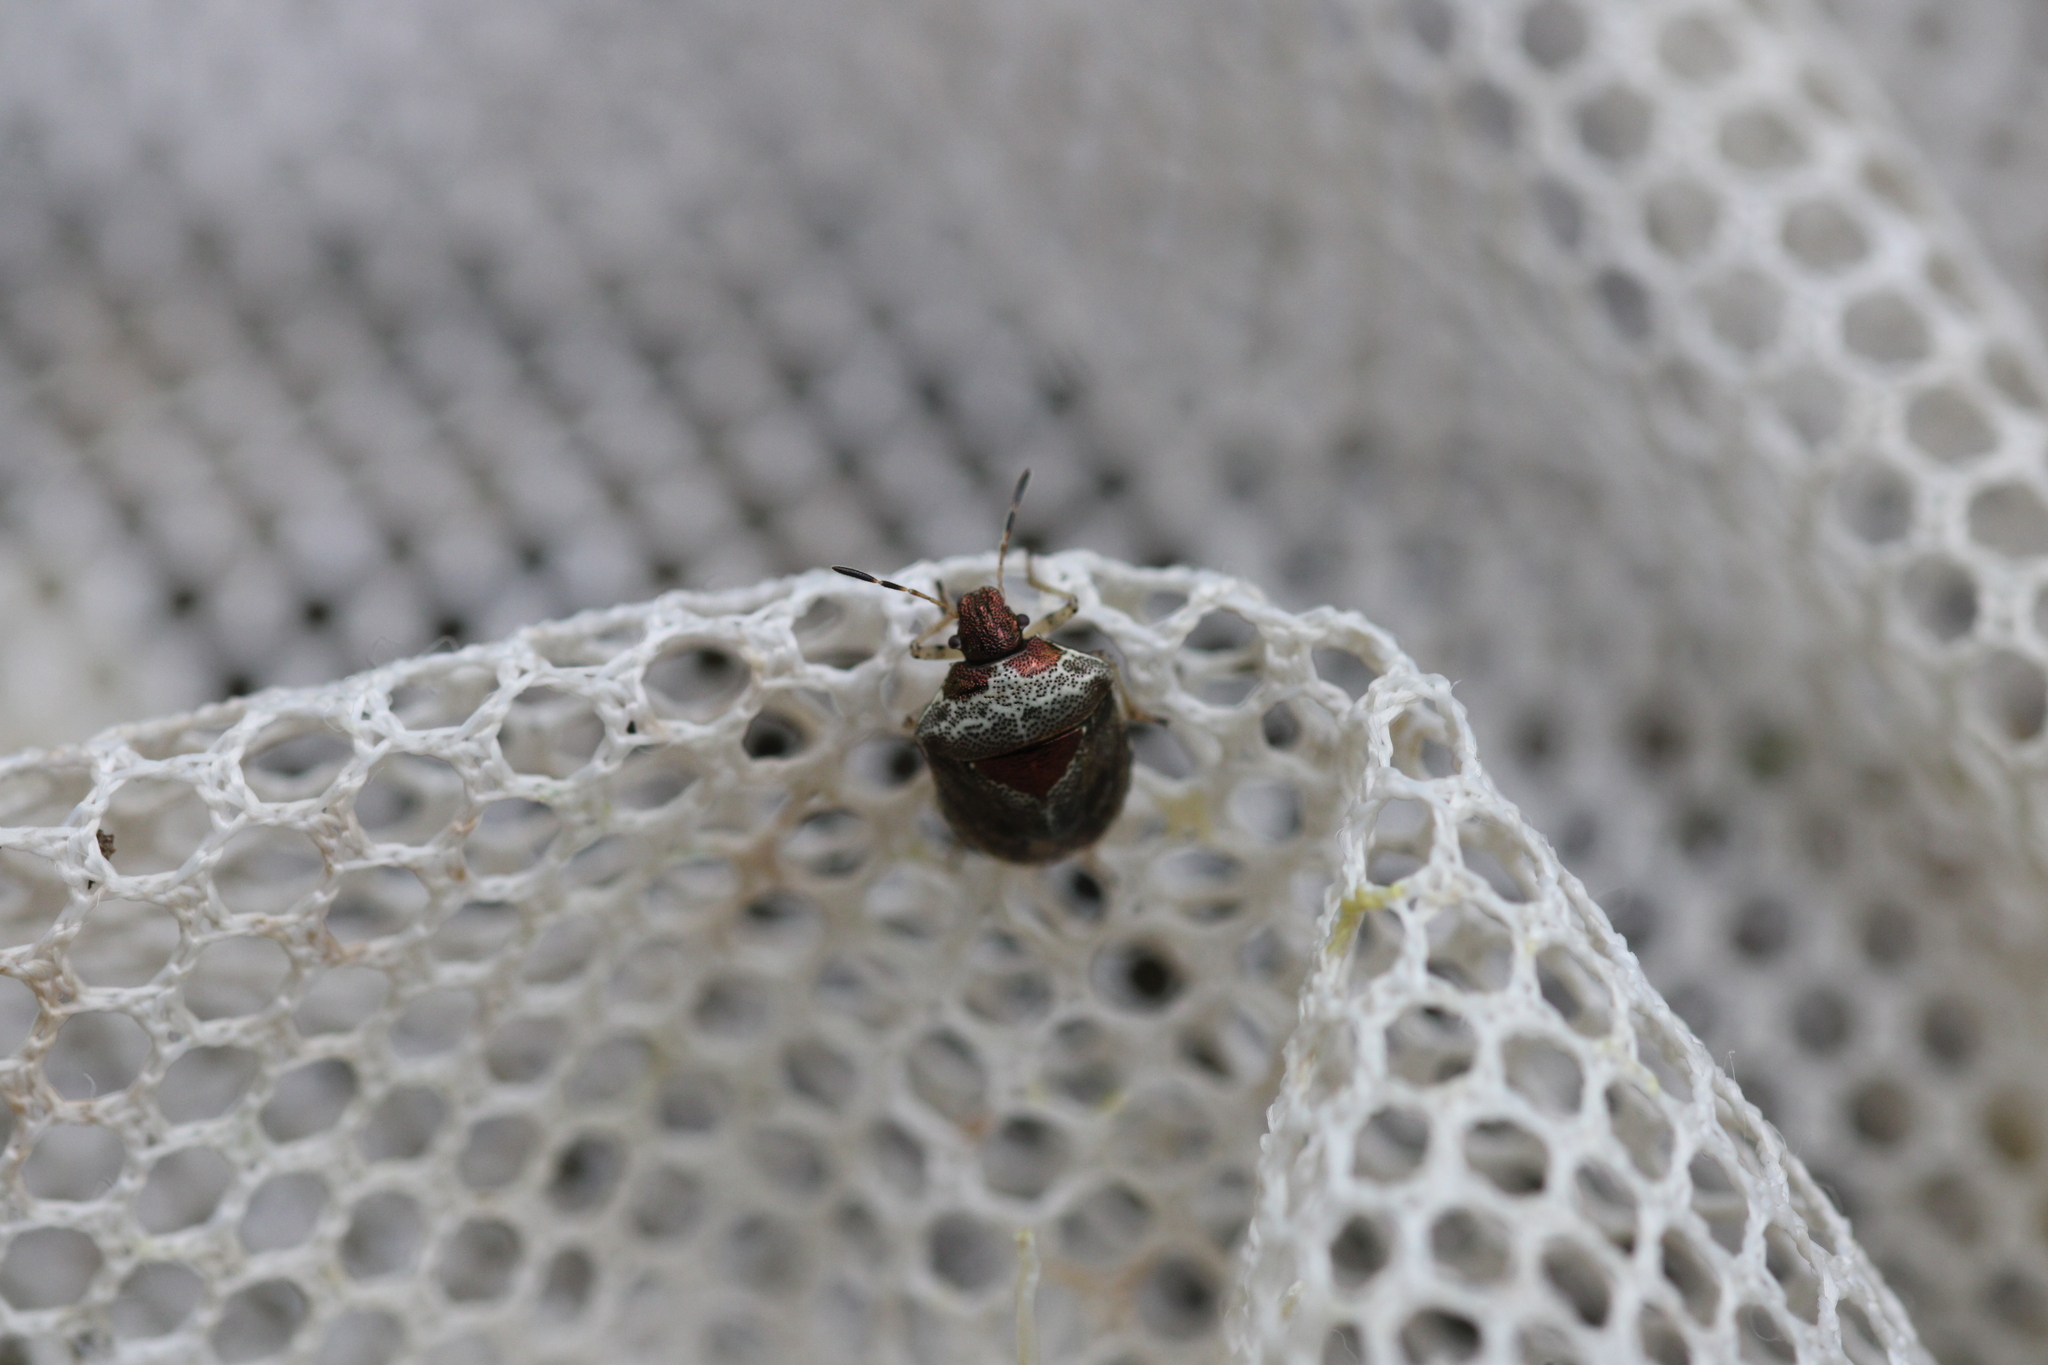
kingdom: Animalia
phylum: Arthropoda
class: Insecta
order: Hemiptera
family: Pentatomidae
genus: Eysarcoris
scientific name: Eysarcoris venustissimus
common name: Woundwort shieldbug
